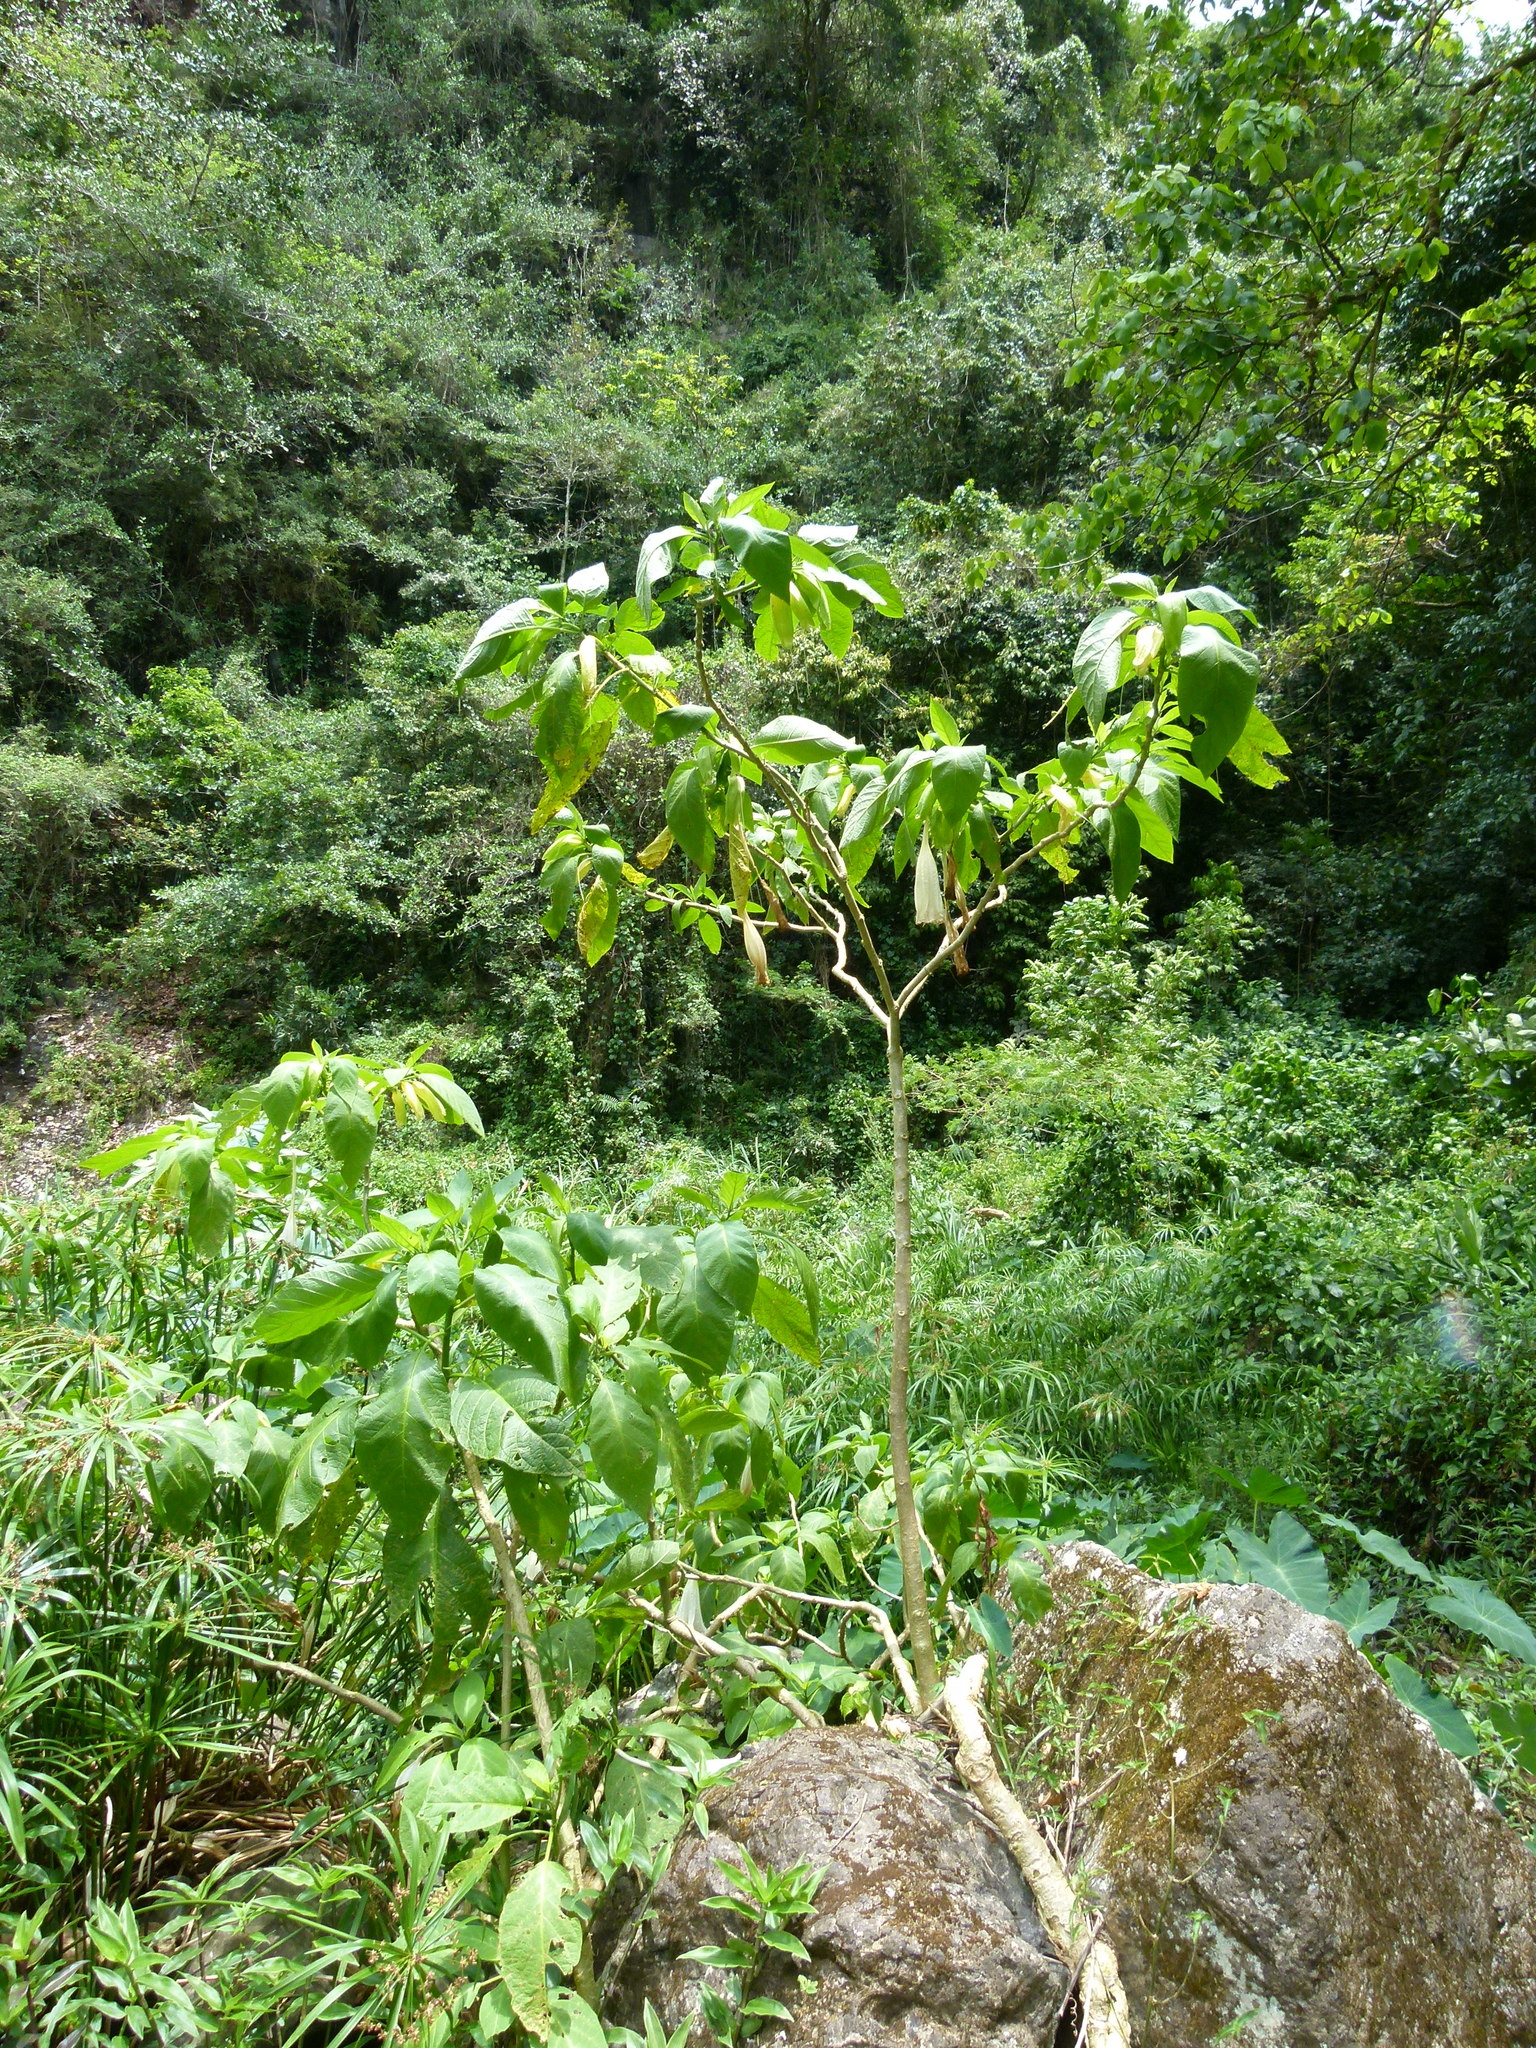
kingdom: Plantae
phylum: Tracheophyta
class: Magnoliopsida
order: Solanales
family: Solanaceae
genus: Brugmansia
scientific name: Brugmansia suaveolens
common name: Angel's tears
